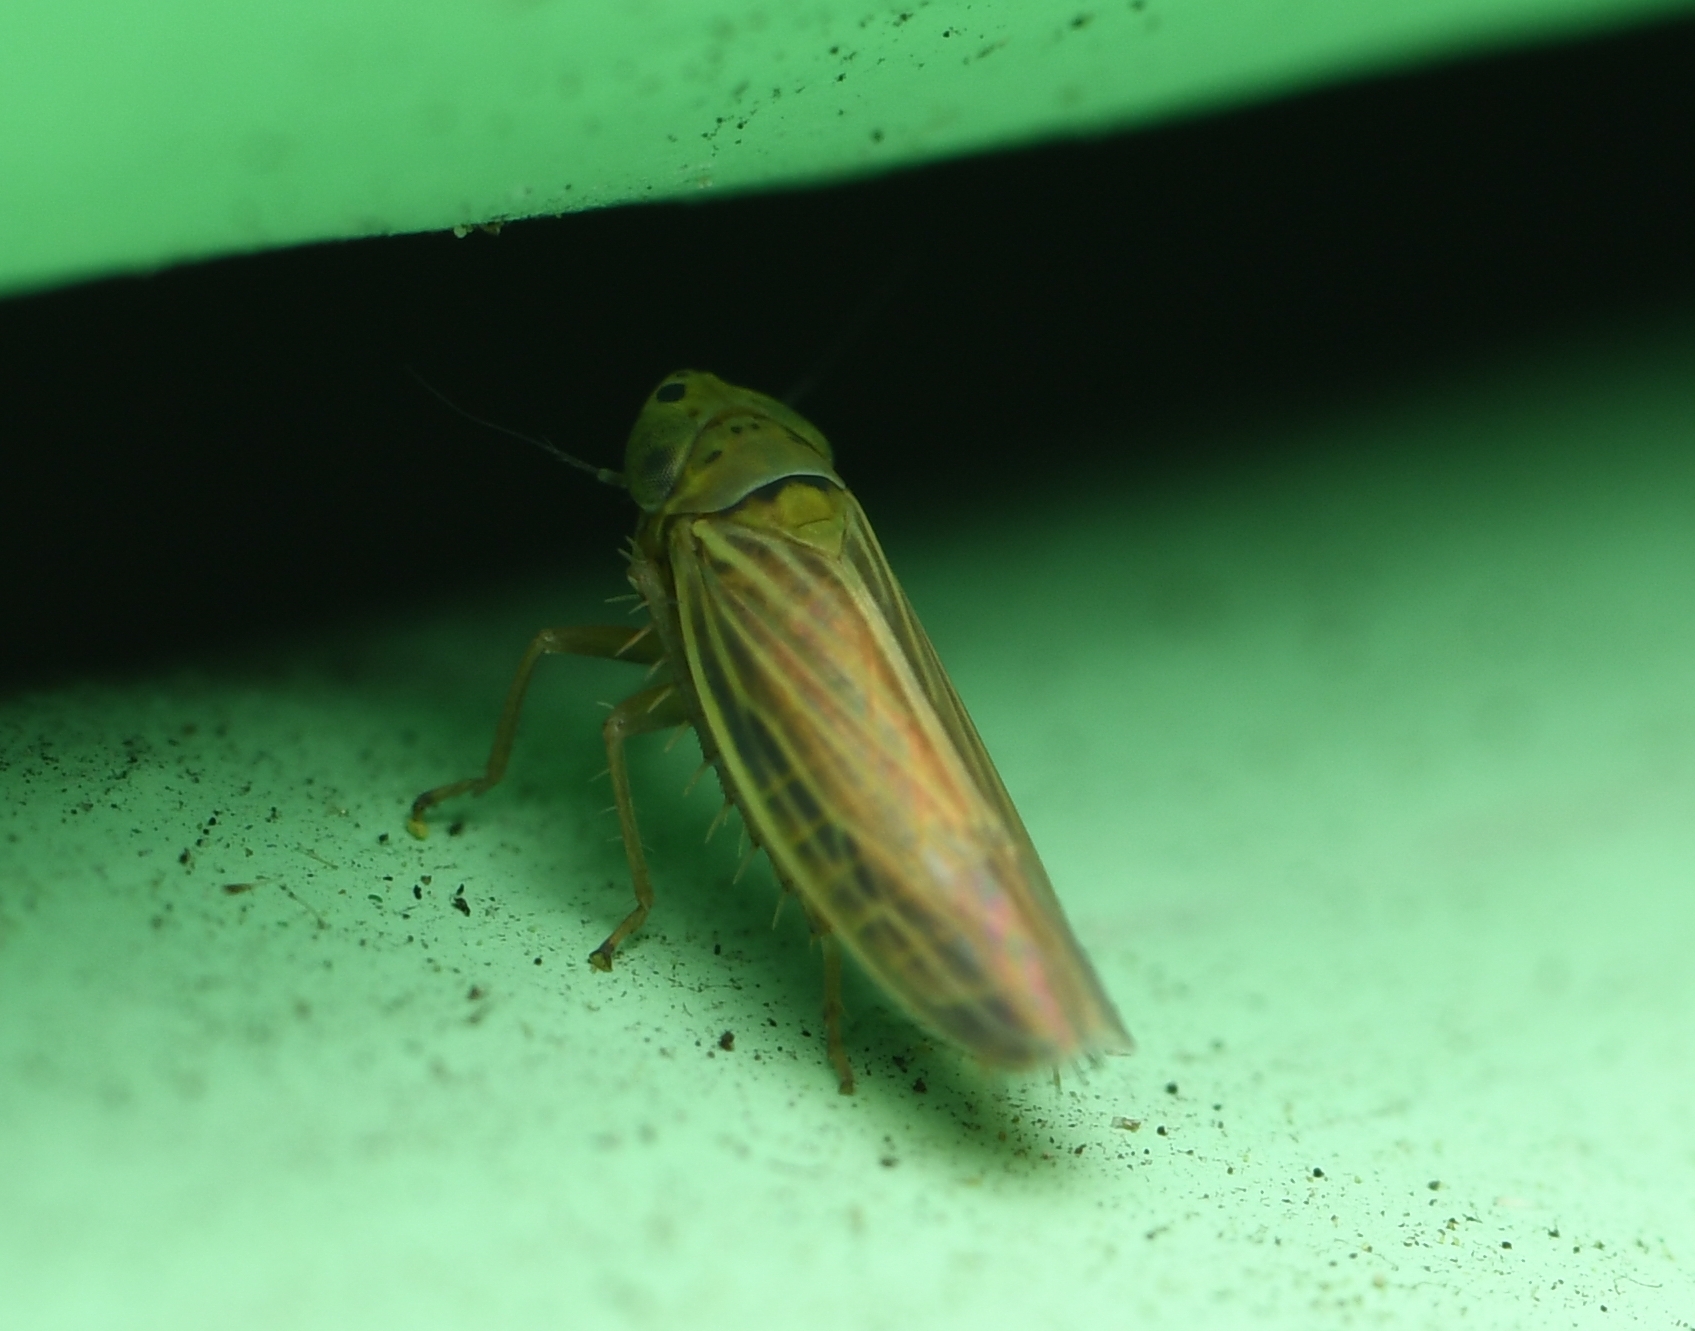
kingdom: Animalia
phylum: Arthropoda
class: Insecta
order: Hemiptera
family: Cicadellidae
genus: Graminella
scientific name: Graminella cognita
